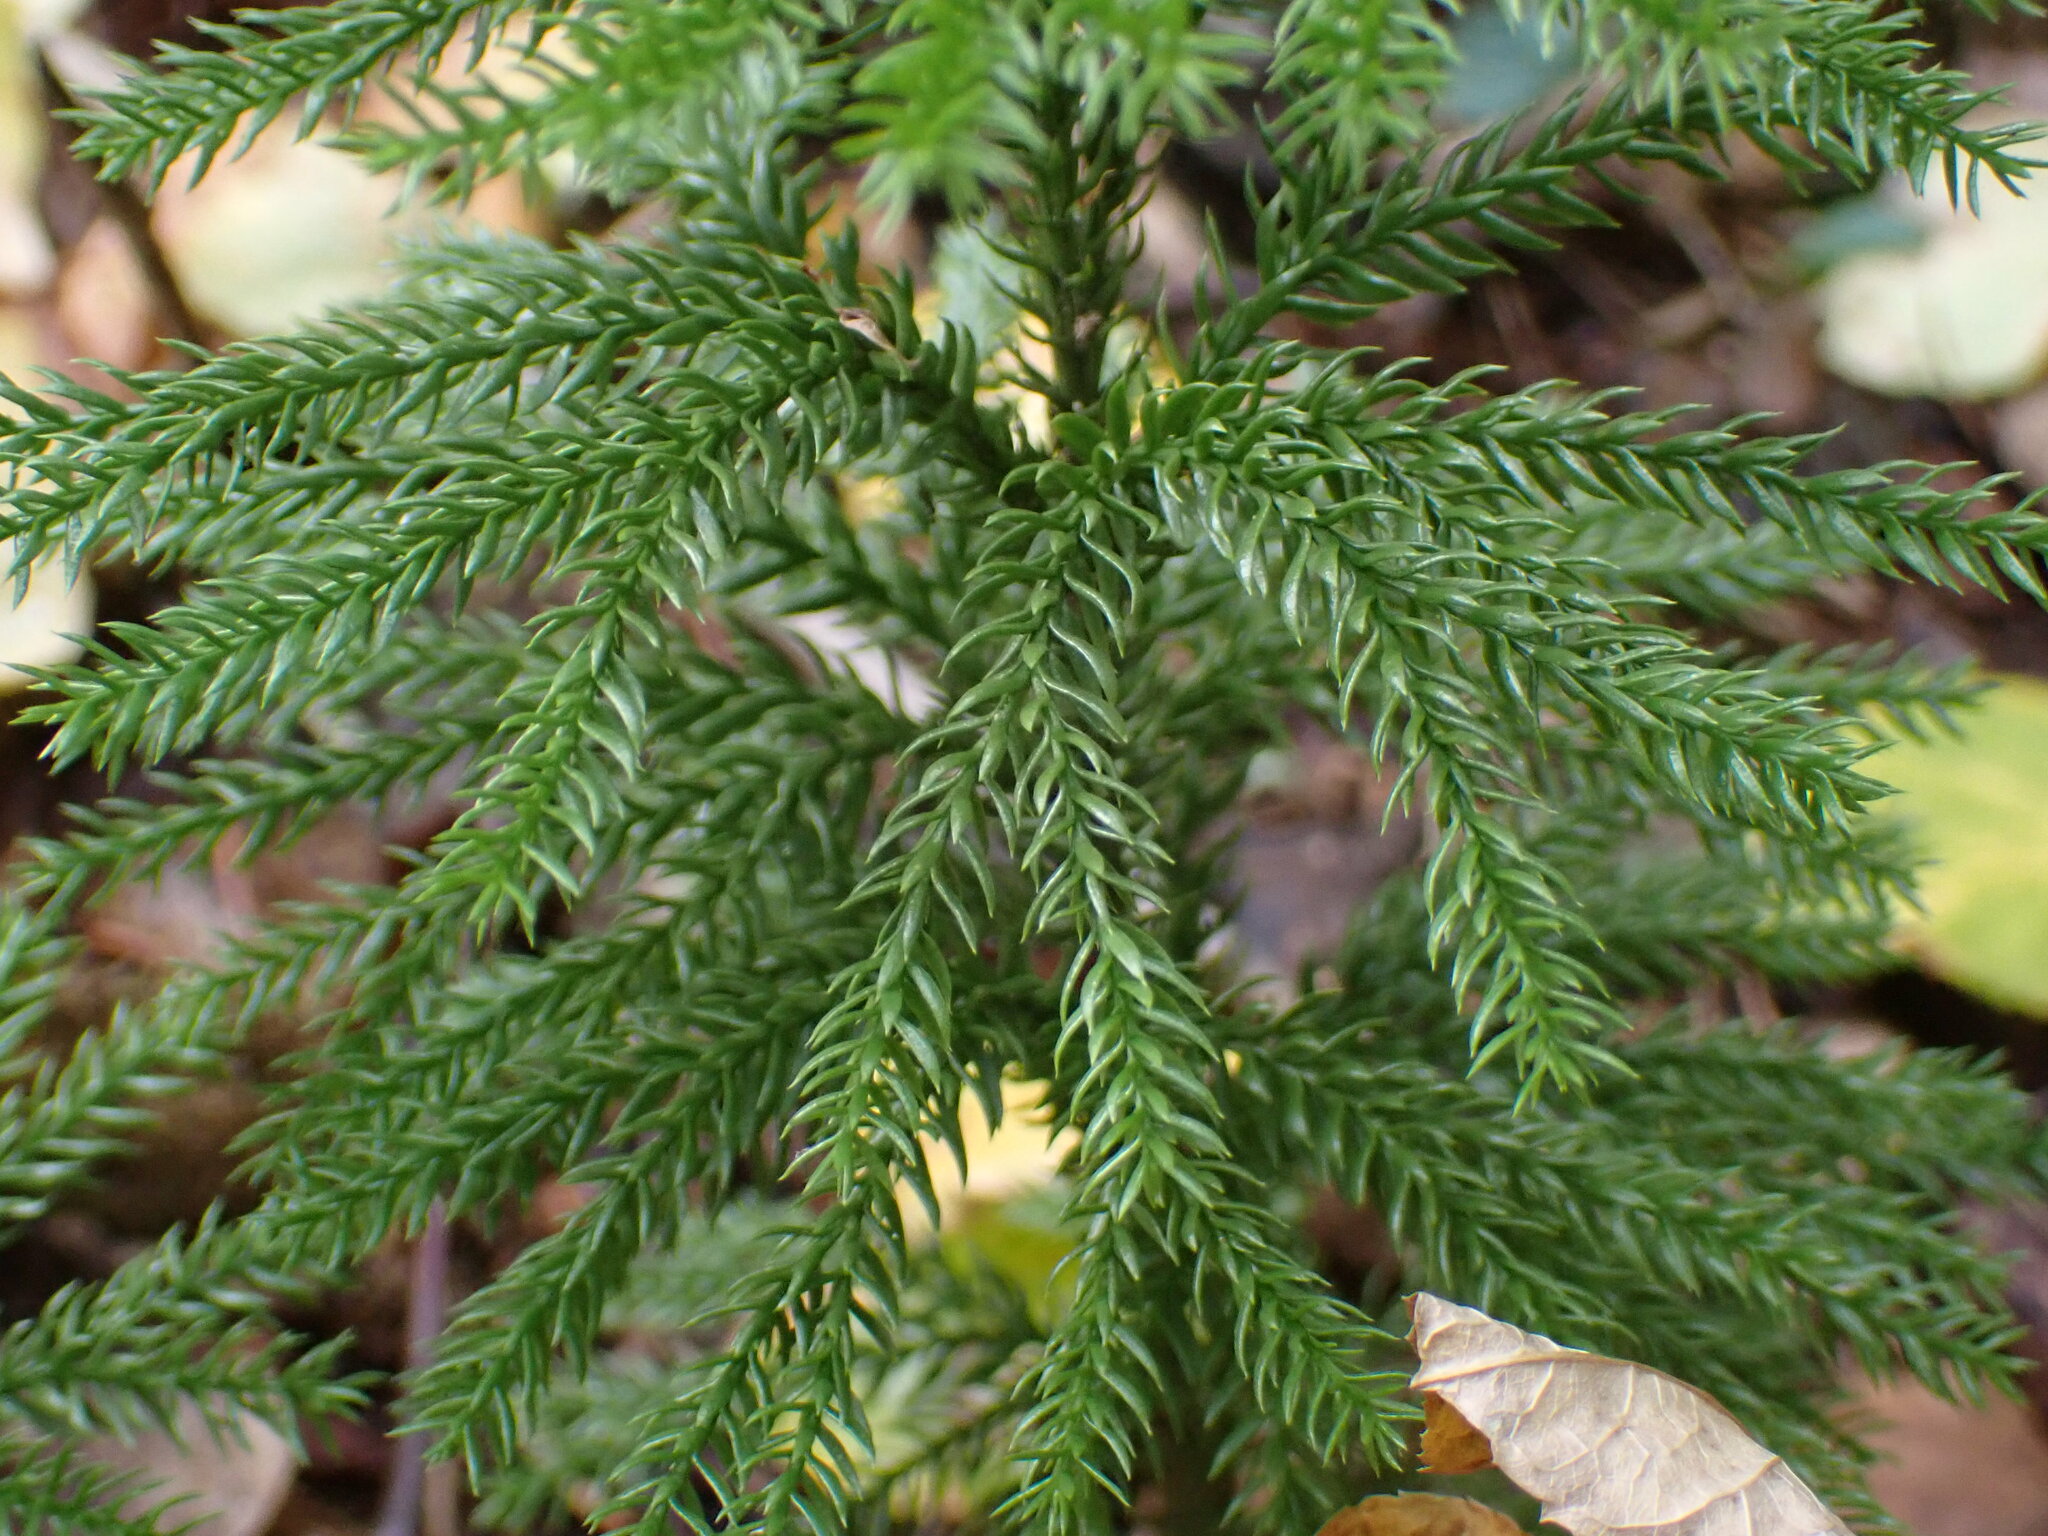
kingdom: Plantae
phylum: Tracheophyta
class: Lycopodiopsida
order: Lycopodiales
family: Lycopodiaceae
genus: Dendrolycopodium
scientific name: Dendrolycopodium dendroideum
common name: Northern tree-clubmoss
